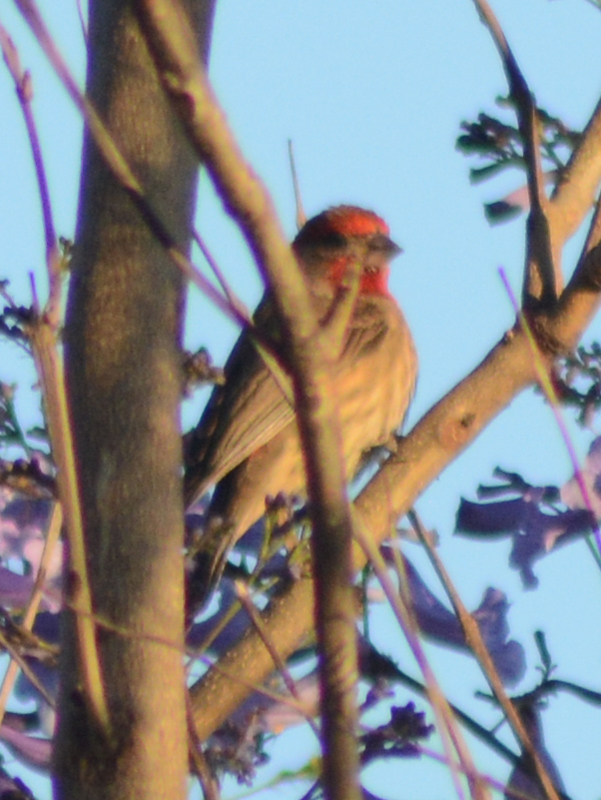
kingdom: Animalia
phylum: Chordata
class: Aves
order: Passeriformes
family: Fringillidae
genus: Haemorhous
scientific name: Haemorhous mexicanus
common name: House finch
